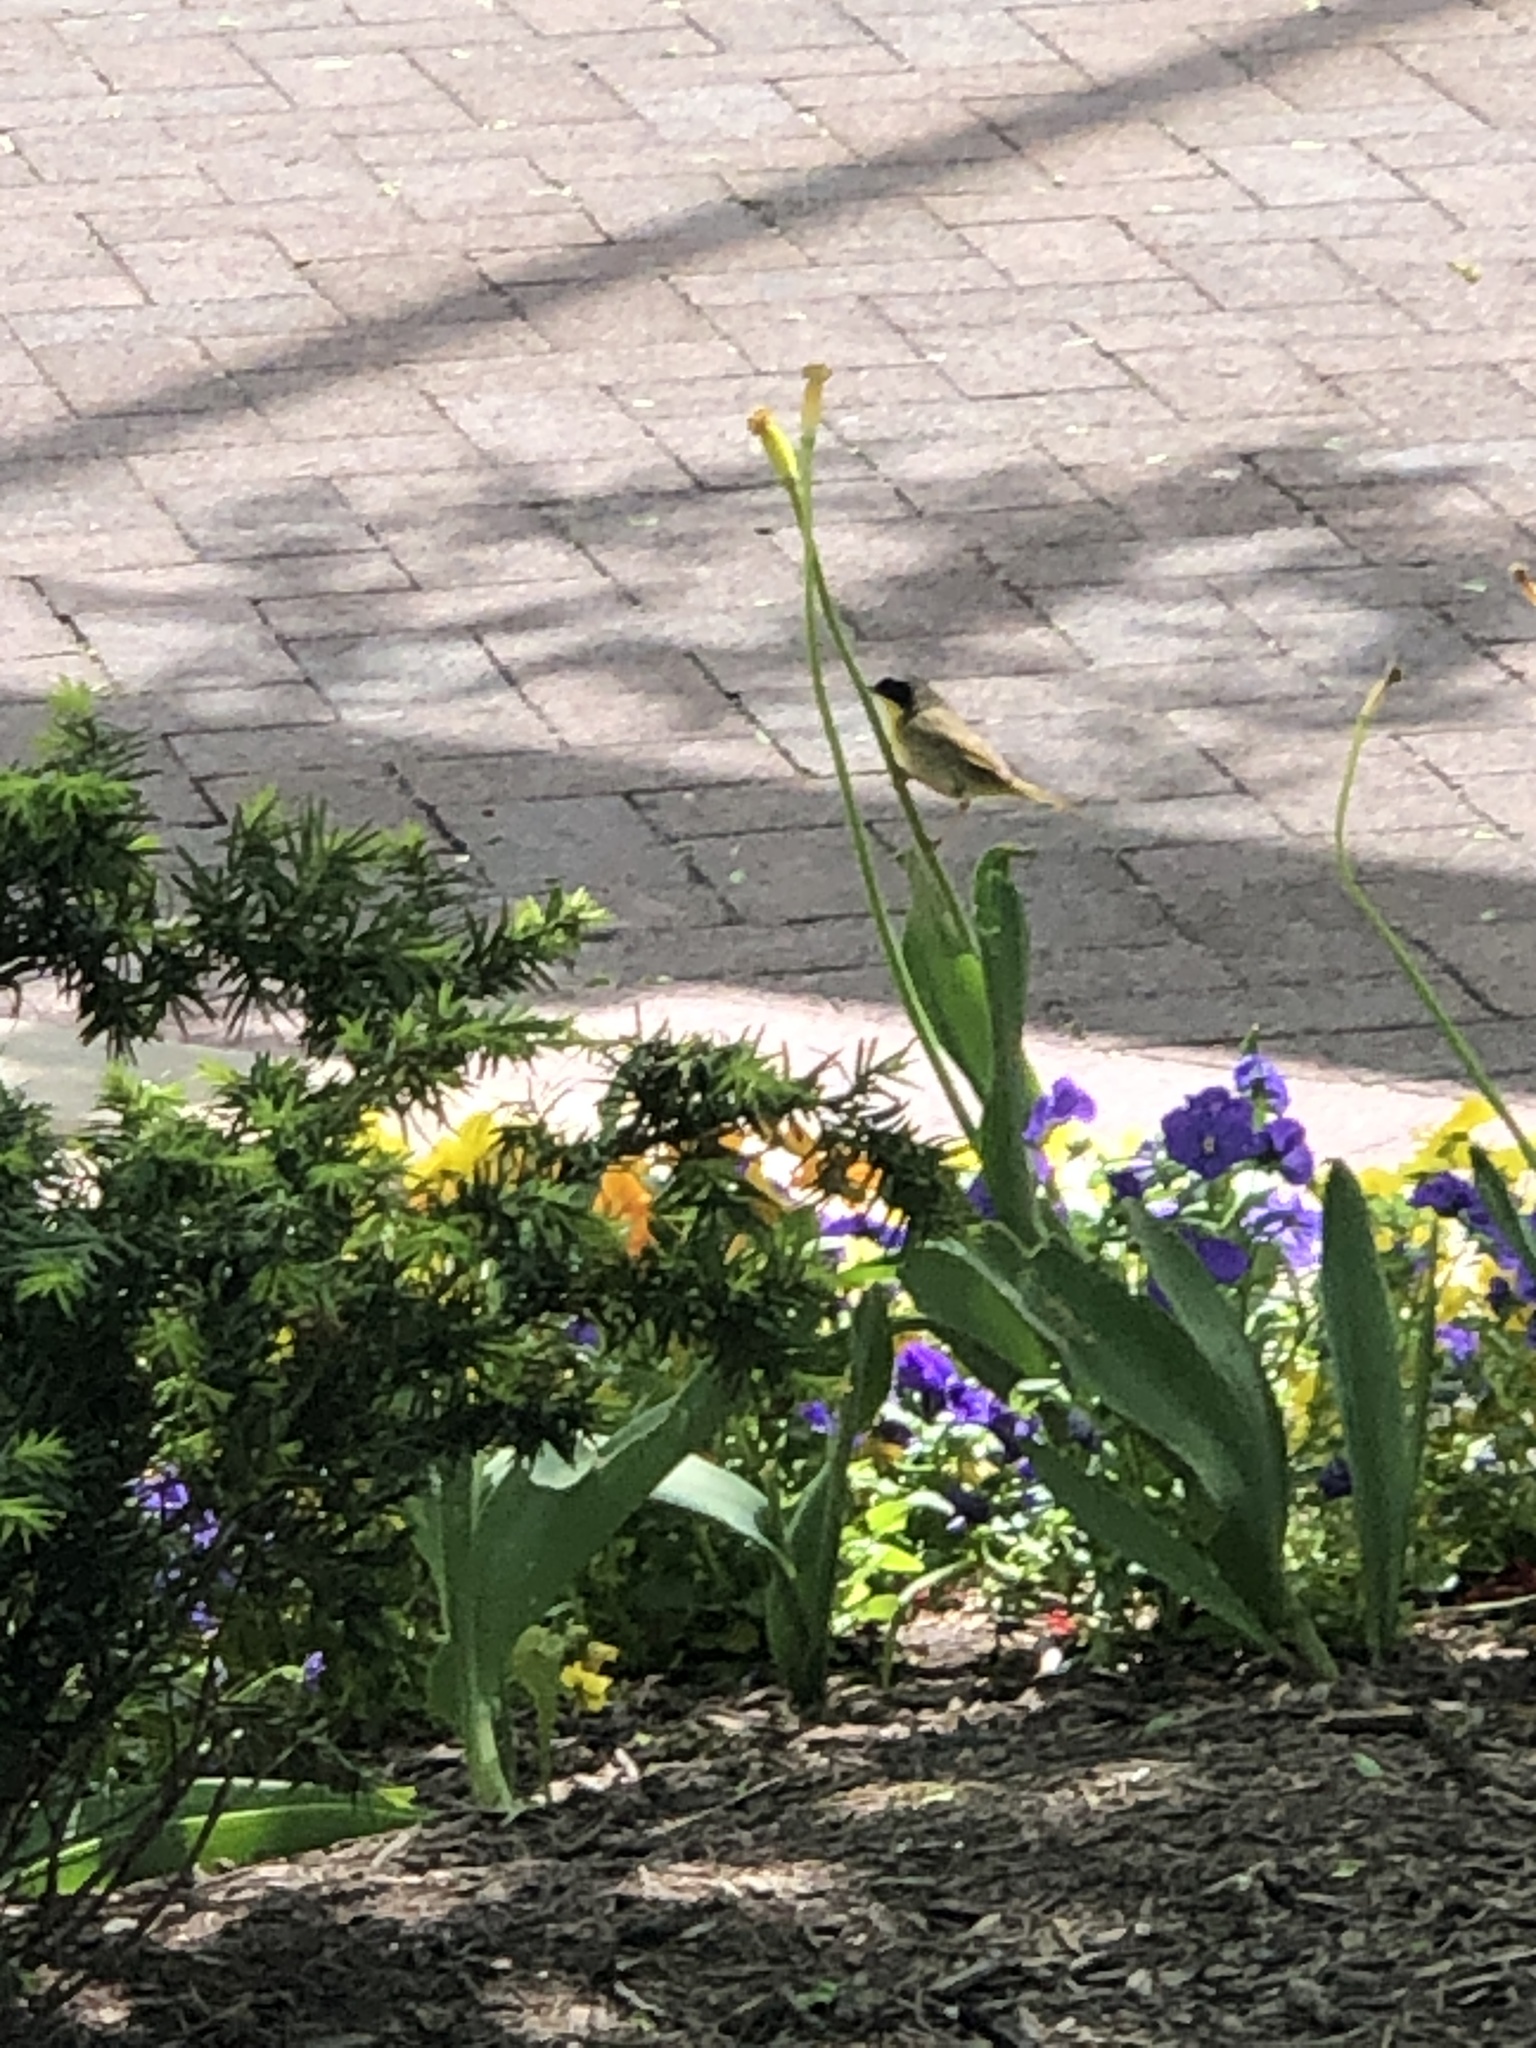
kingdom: Animalia
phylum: Chordata
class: Aves
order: Passeriformes
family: Parulidae
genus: Geothlypis
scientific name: Geothlypis trichas
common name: Common yellowthroat
